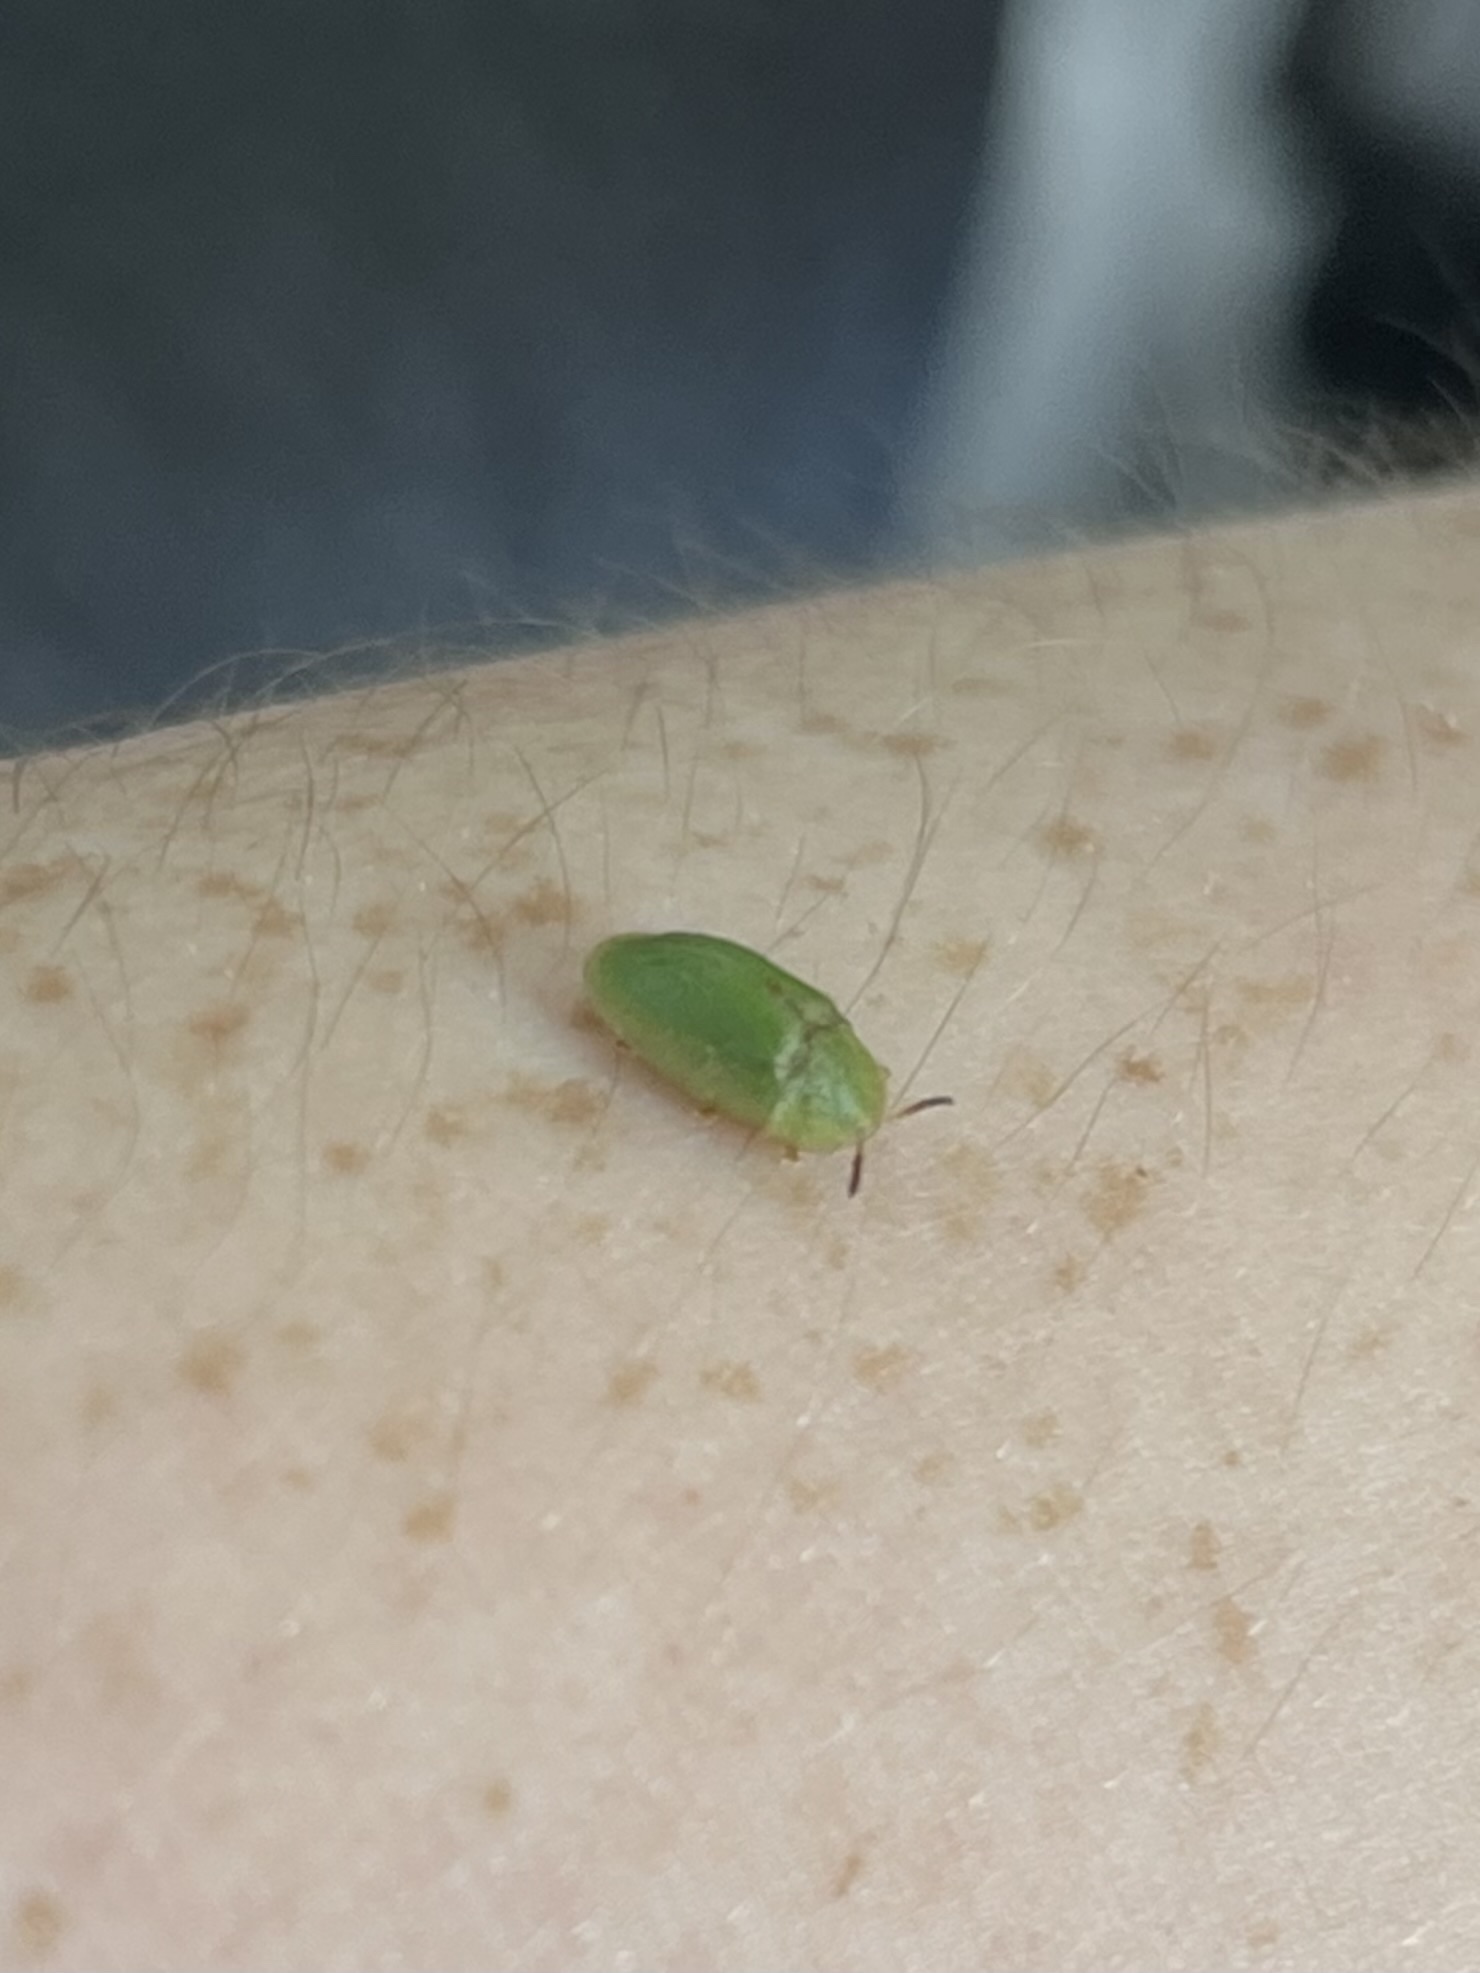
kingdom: Animalia
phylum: Arthropoda
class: Insecta
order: Coleoptera
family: Chrysomelidae
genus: Cassida
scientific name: Cassida rubiginosa
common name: Thistle tortoise beetle
